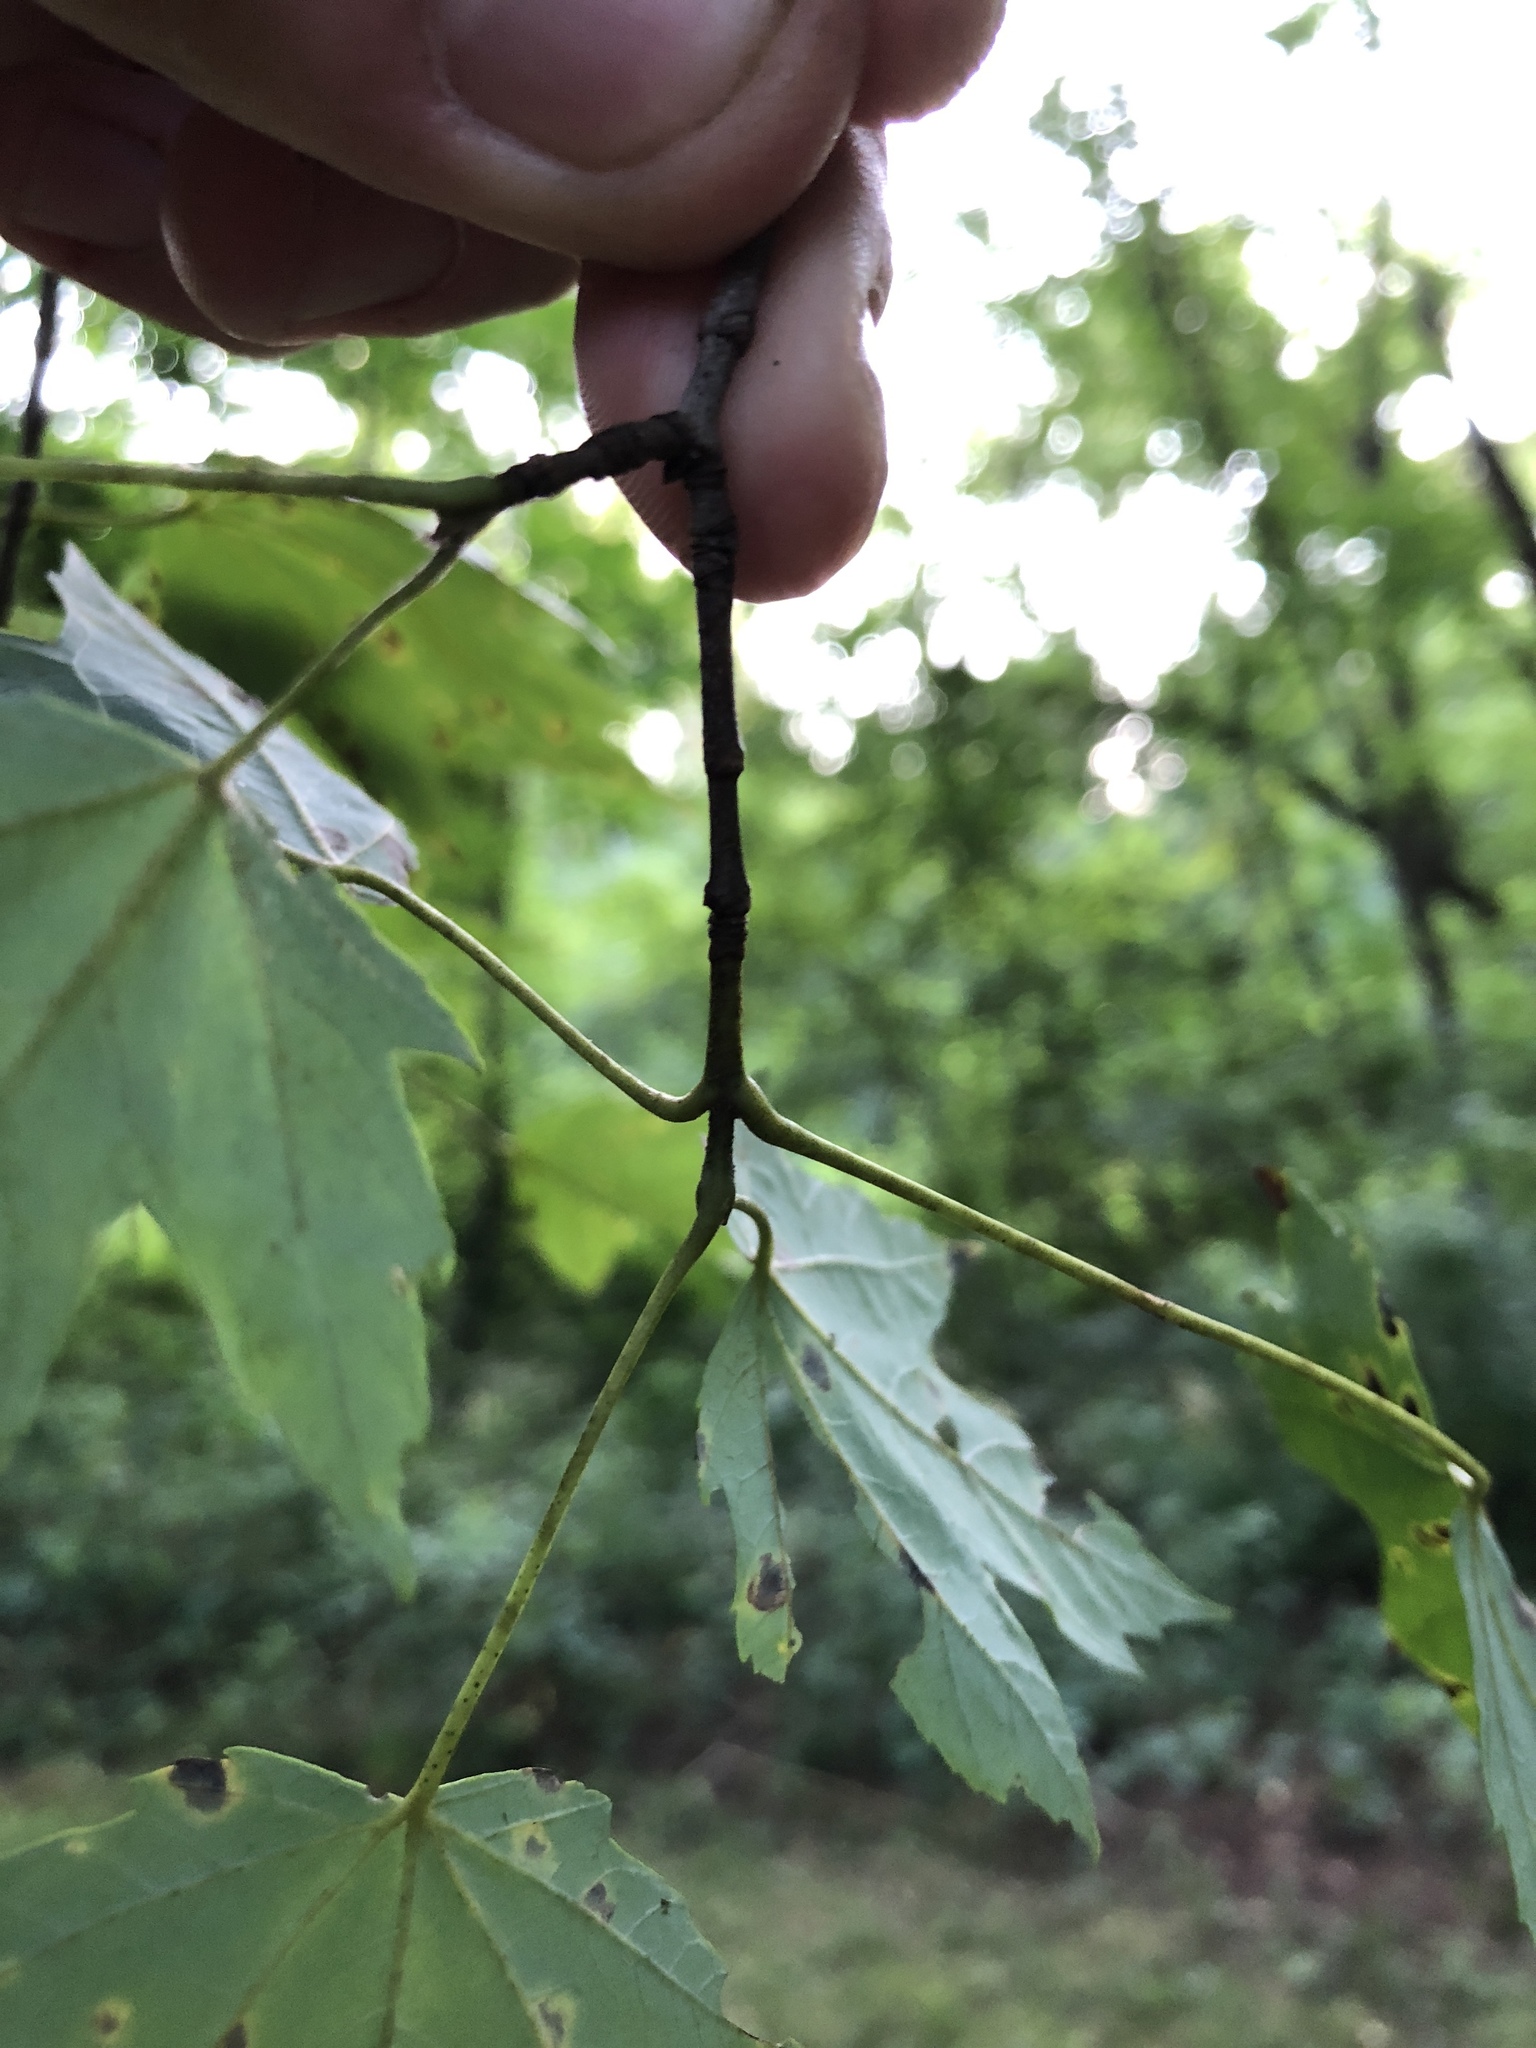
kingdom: Plantae
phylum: Tracheophyta
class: Magnoliopsida
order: Sapindales
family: Sapindaceae
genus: Acer
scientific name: Acer saccharum
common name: Sugar maple
